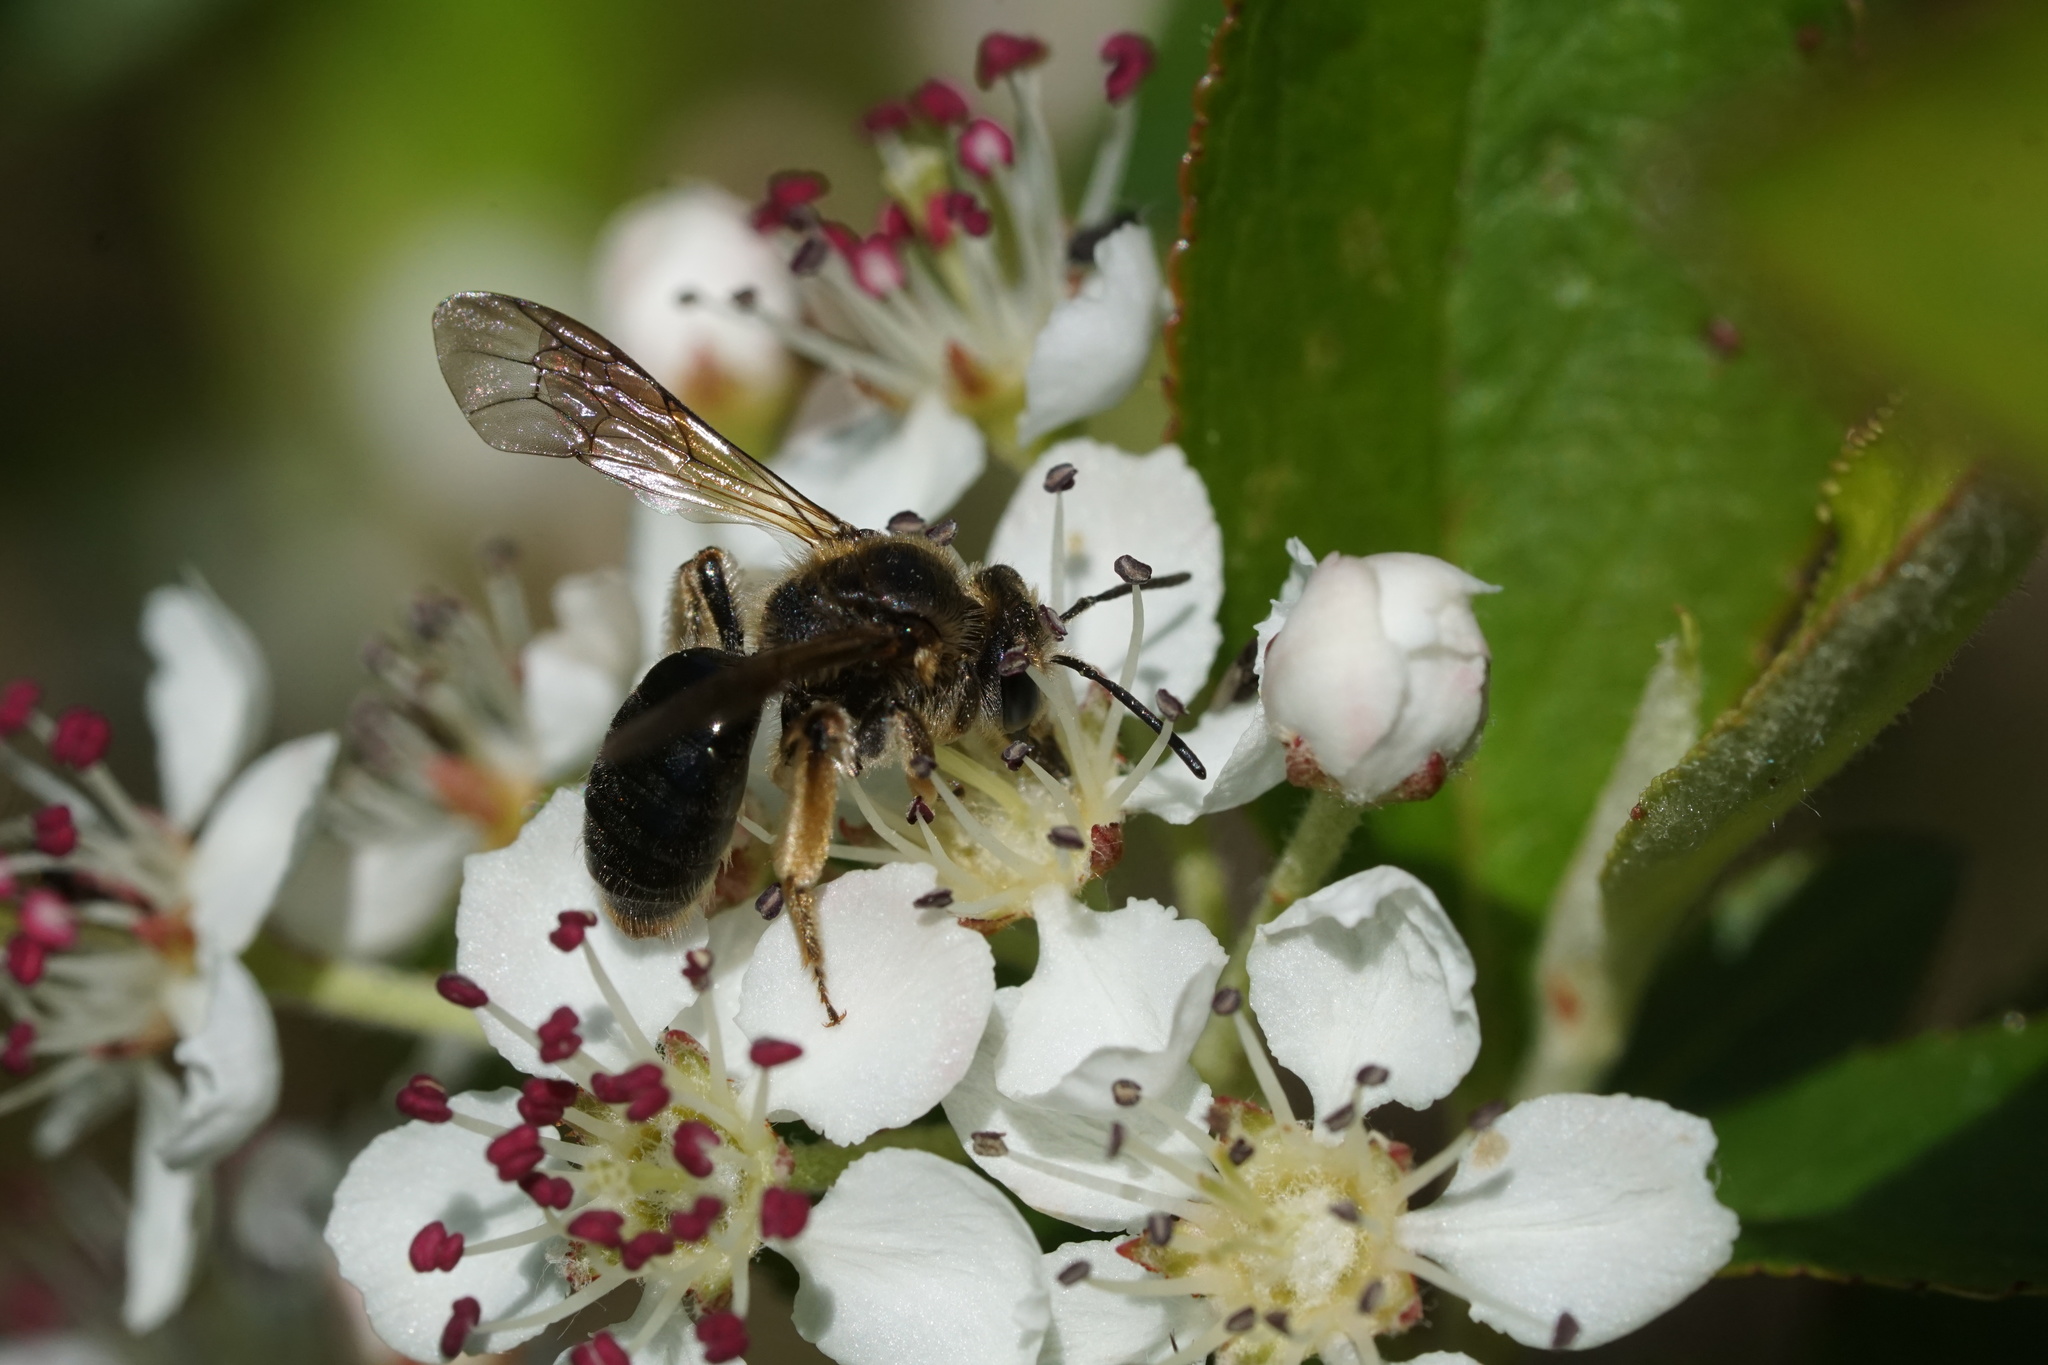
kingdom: Animalia
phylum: Arthropoda
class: Insecta
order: Hymenoptera
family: Andrenidae
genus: Andrena
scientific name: Andrena crataegi
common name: Hawthorn mining bee
